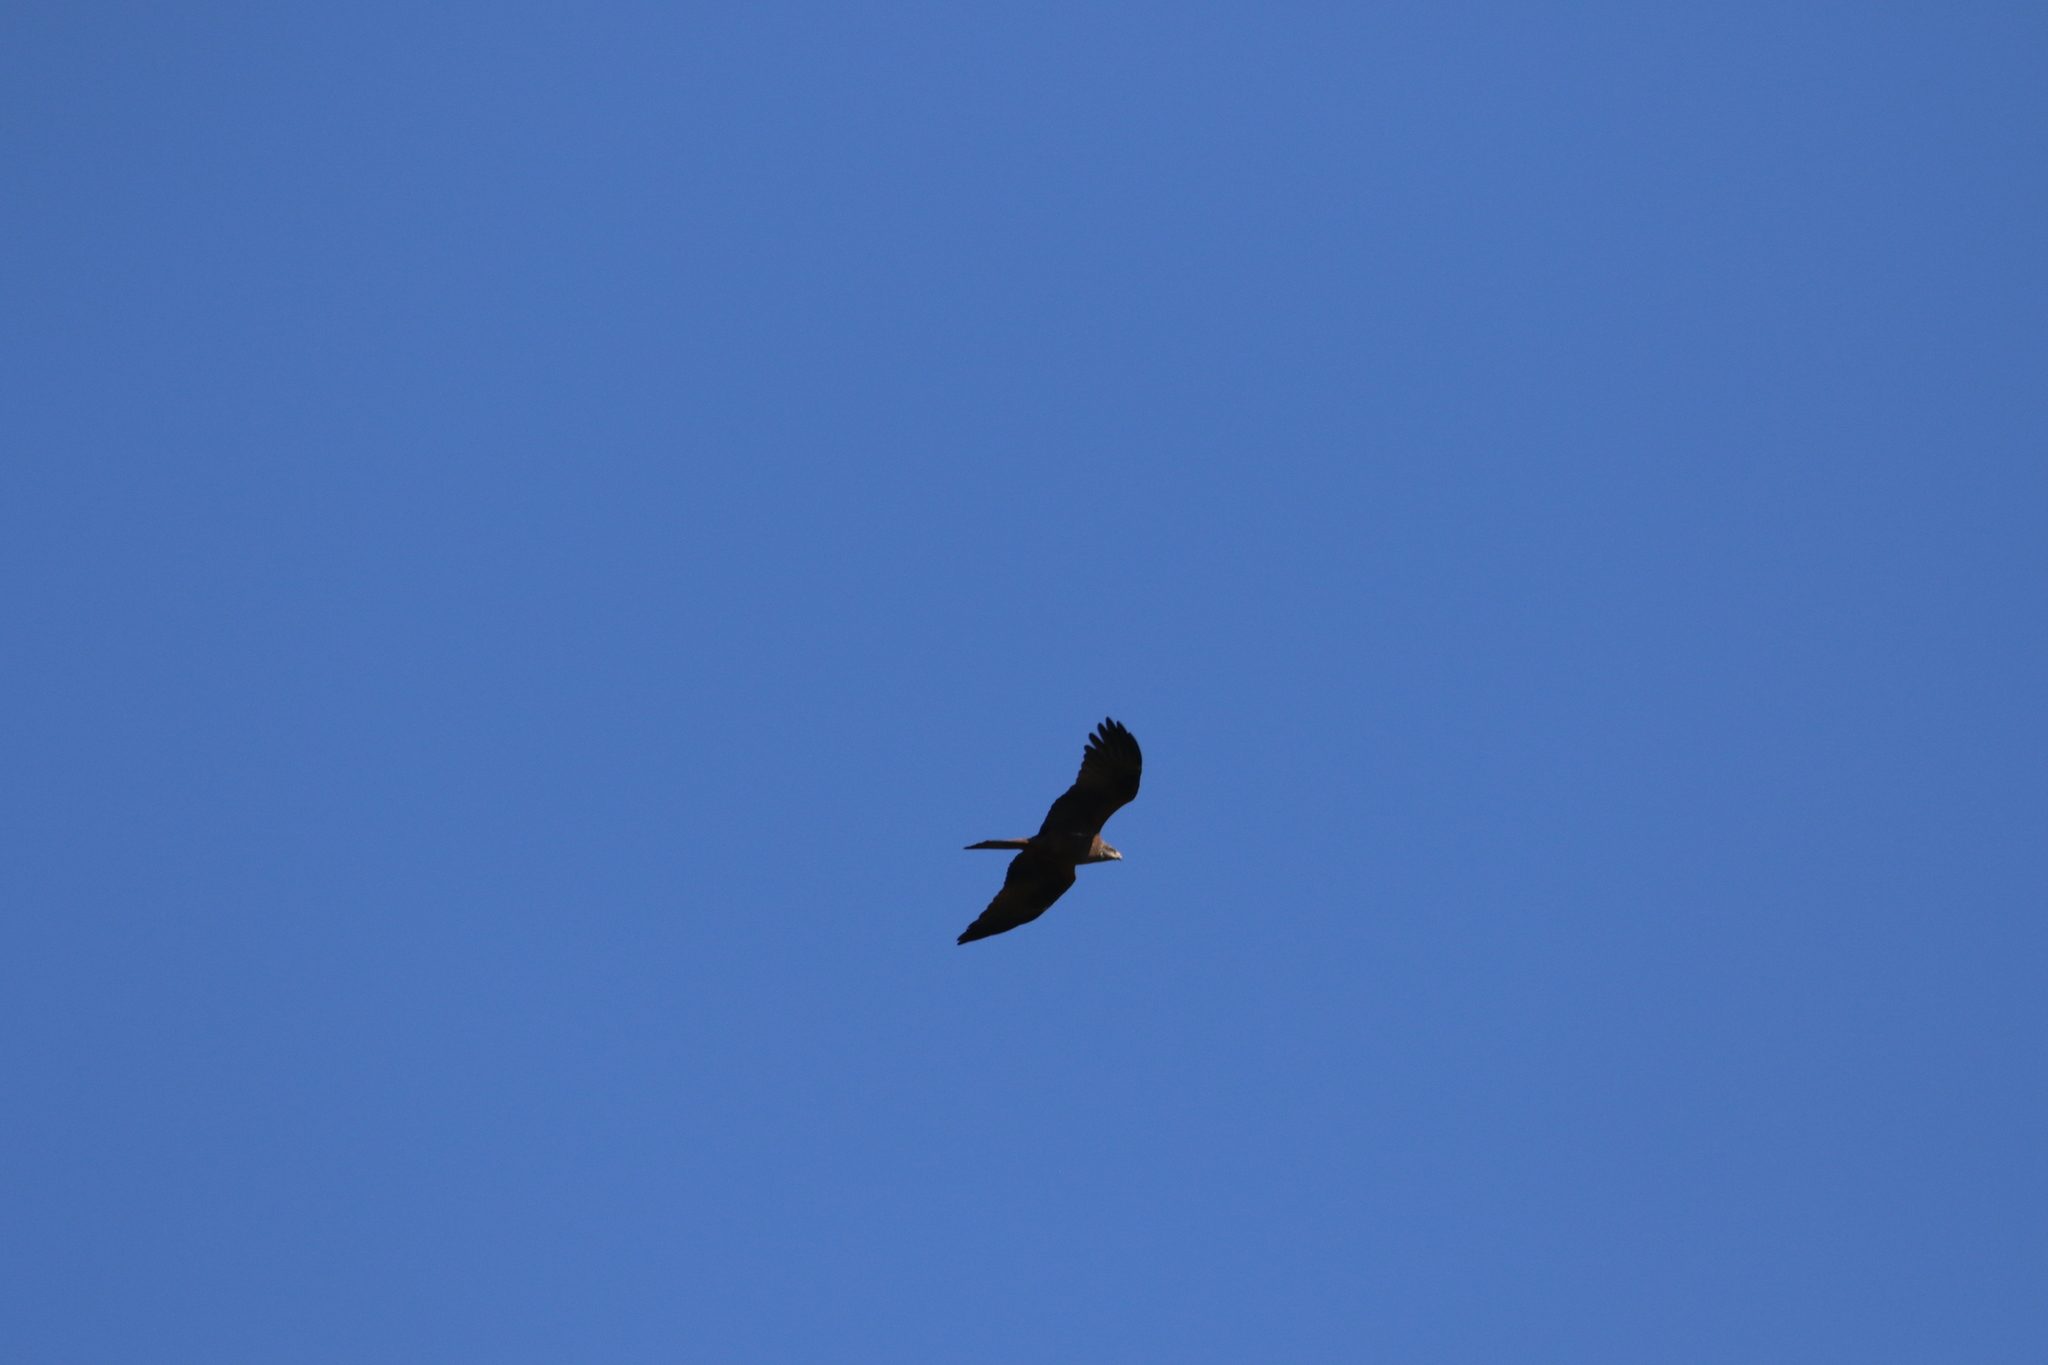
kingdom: Animalia
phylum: Chordata
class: Aves
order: Accipitriformes
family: Accipitridae
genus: Milvus
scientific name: Milvus migrans
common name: Black kite
